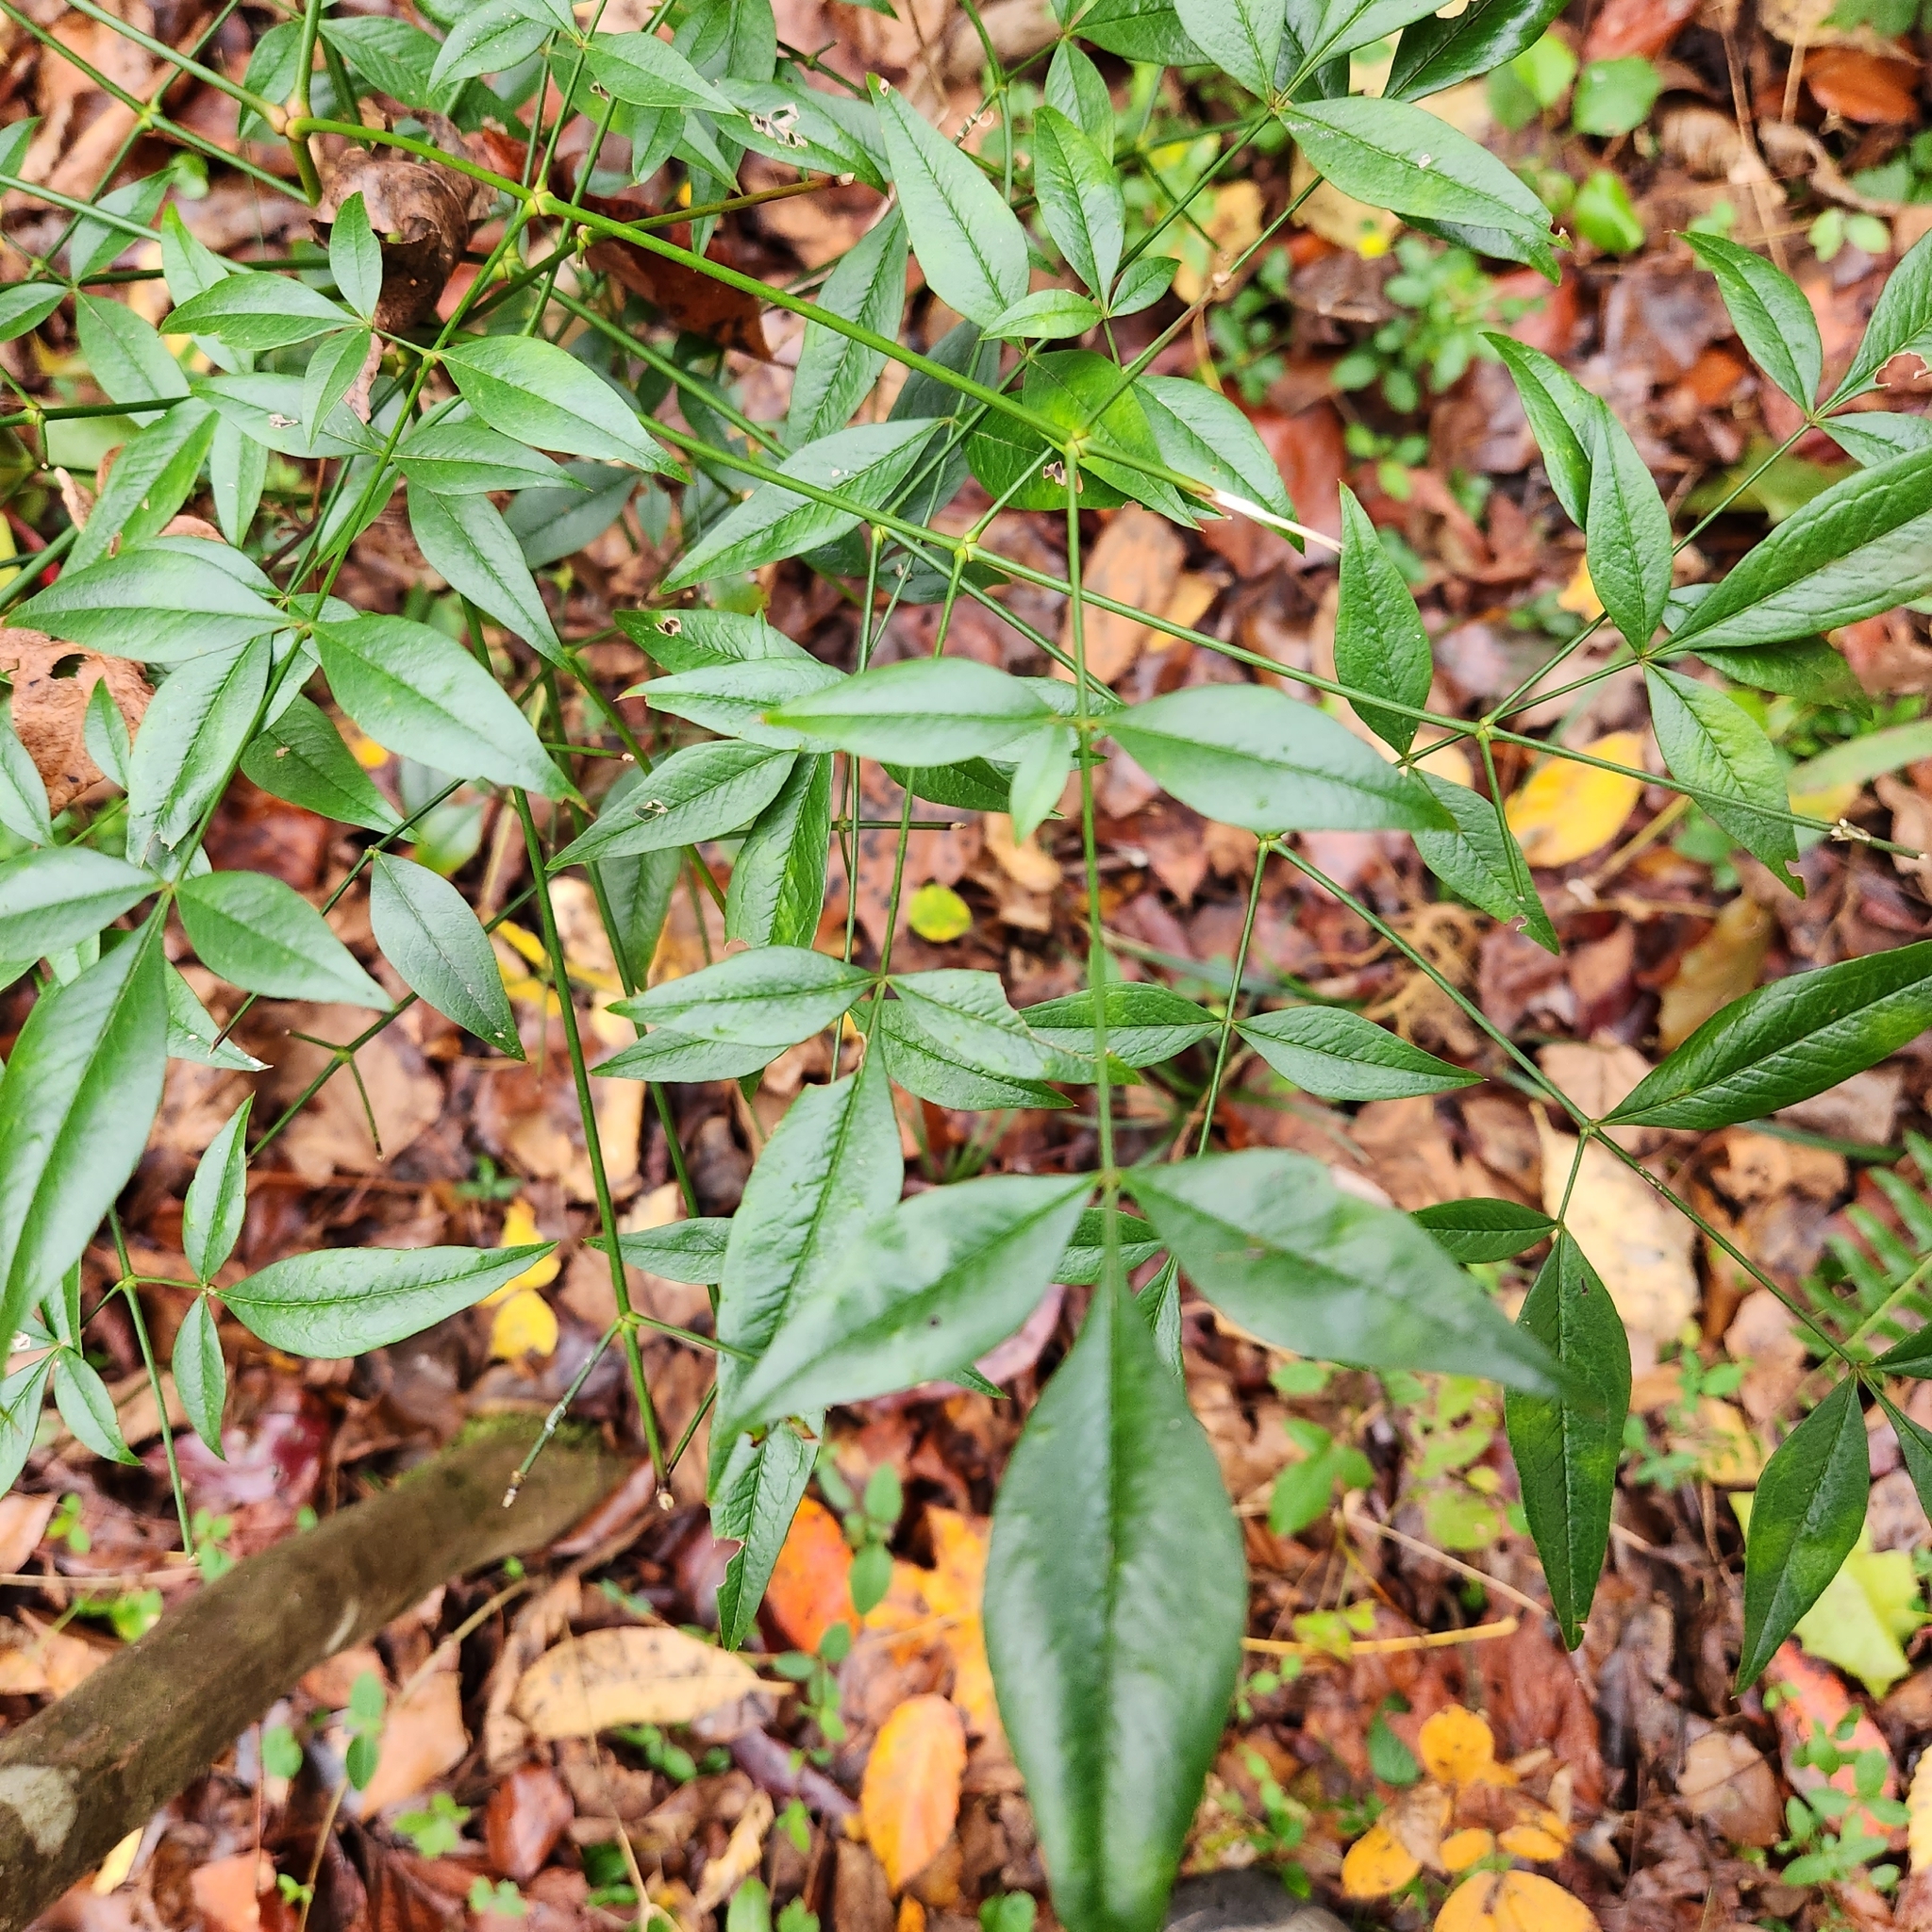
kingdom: Plantae
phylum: Tracheophyta
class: Magnoliopsida
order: Ranunculales
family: Berberidaceae
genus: Nandina
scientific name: Nandina domestica
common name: Sacred bamboo
